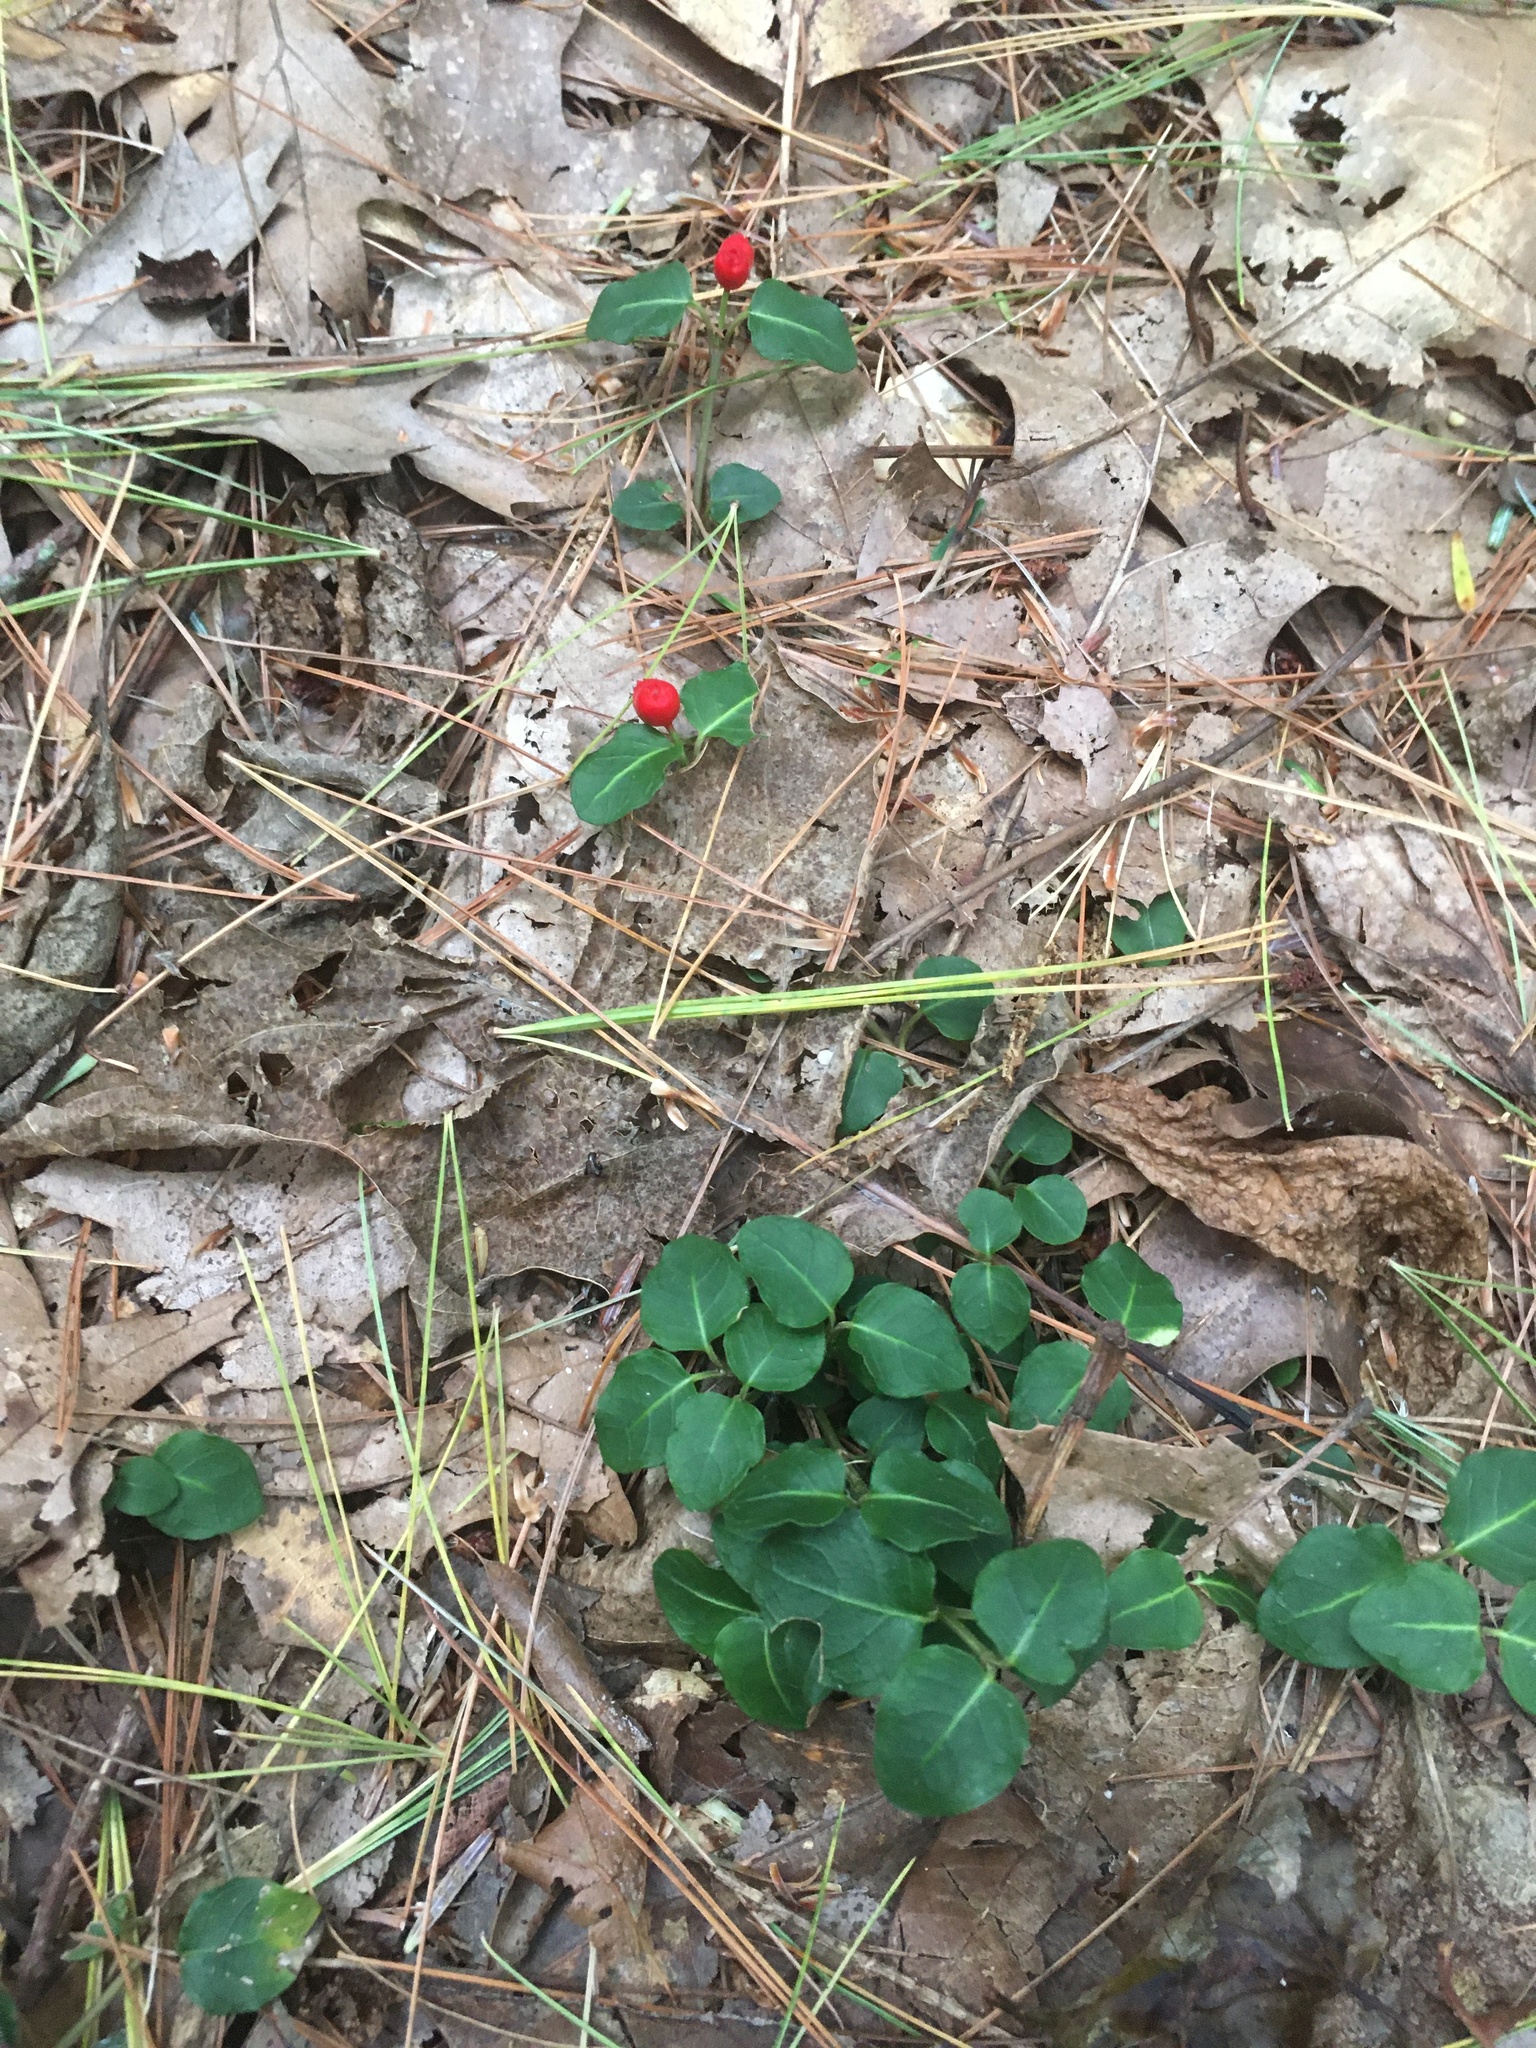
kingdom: Plantae
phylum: Tracheophyta
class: Magnoliopsida
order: Gentianales
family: Rubiaceae
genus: Mitchella
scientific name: Mitchella repens
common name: Partridge-berry
